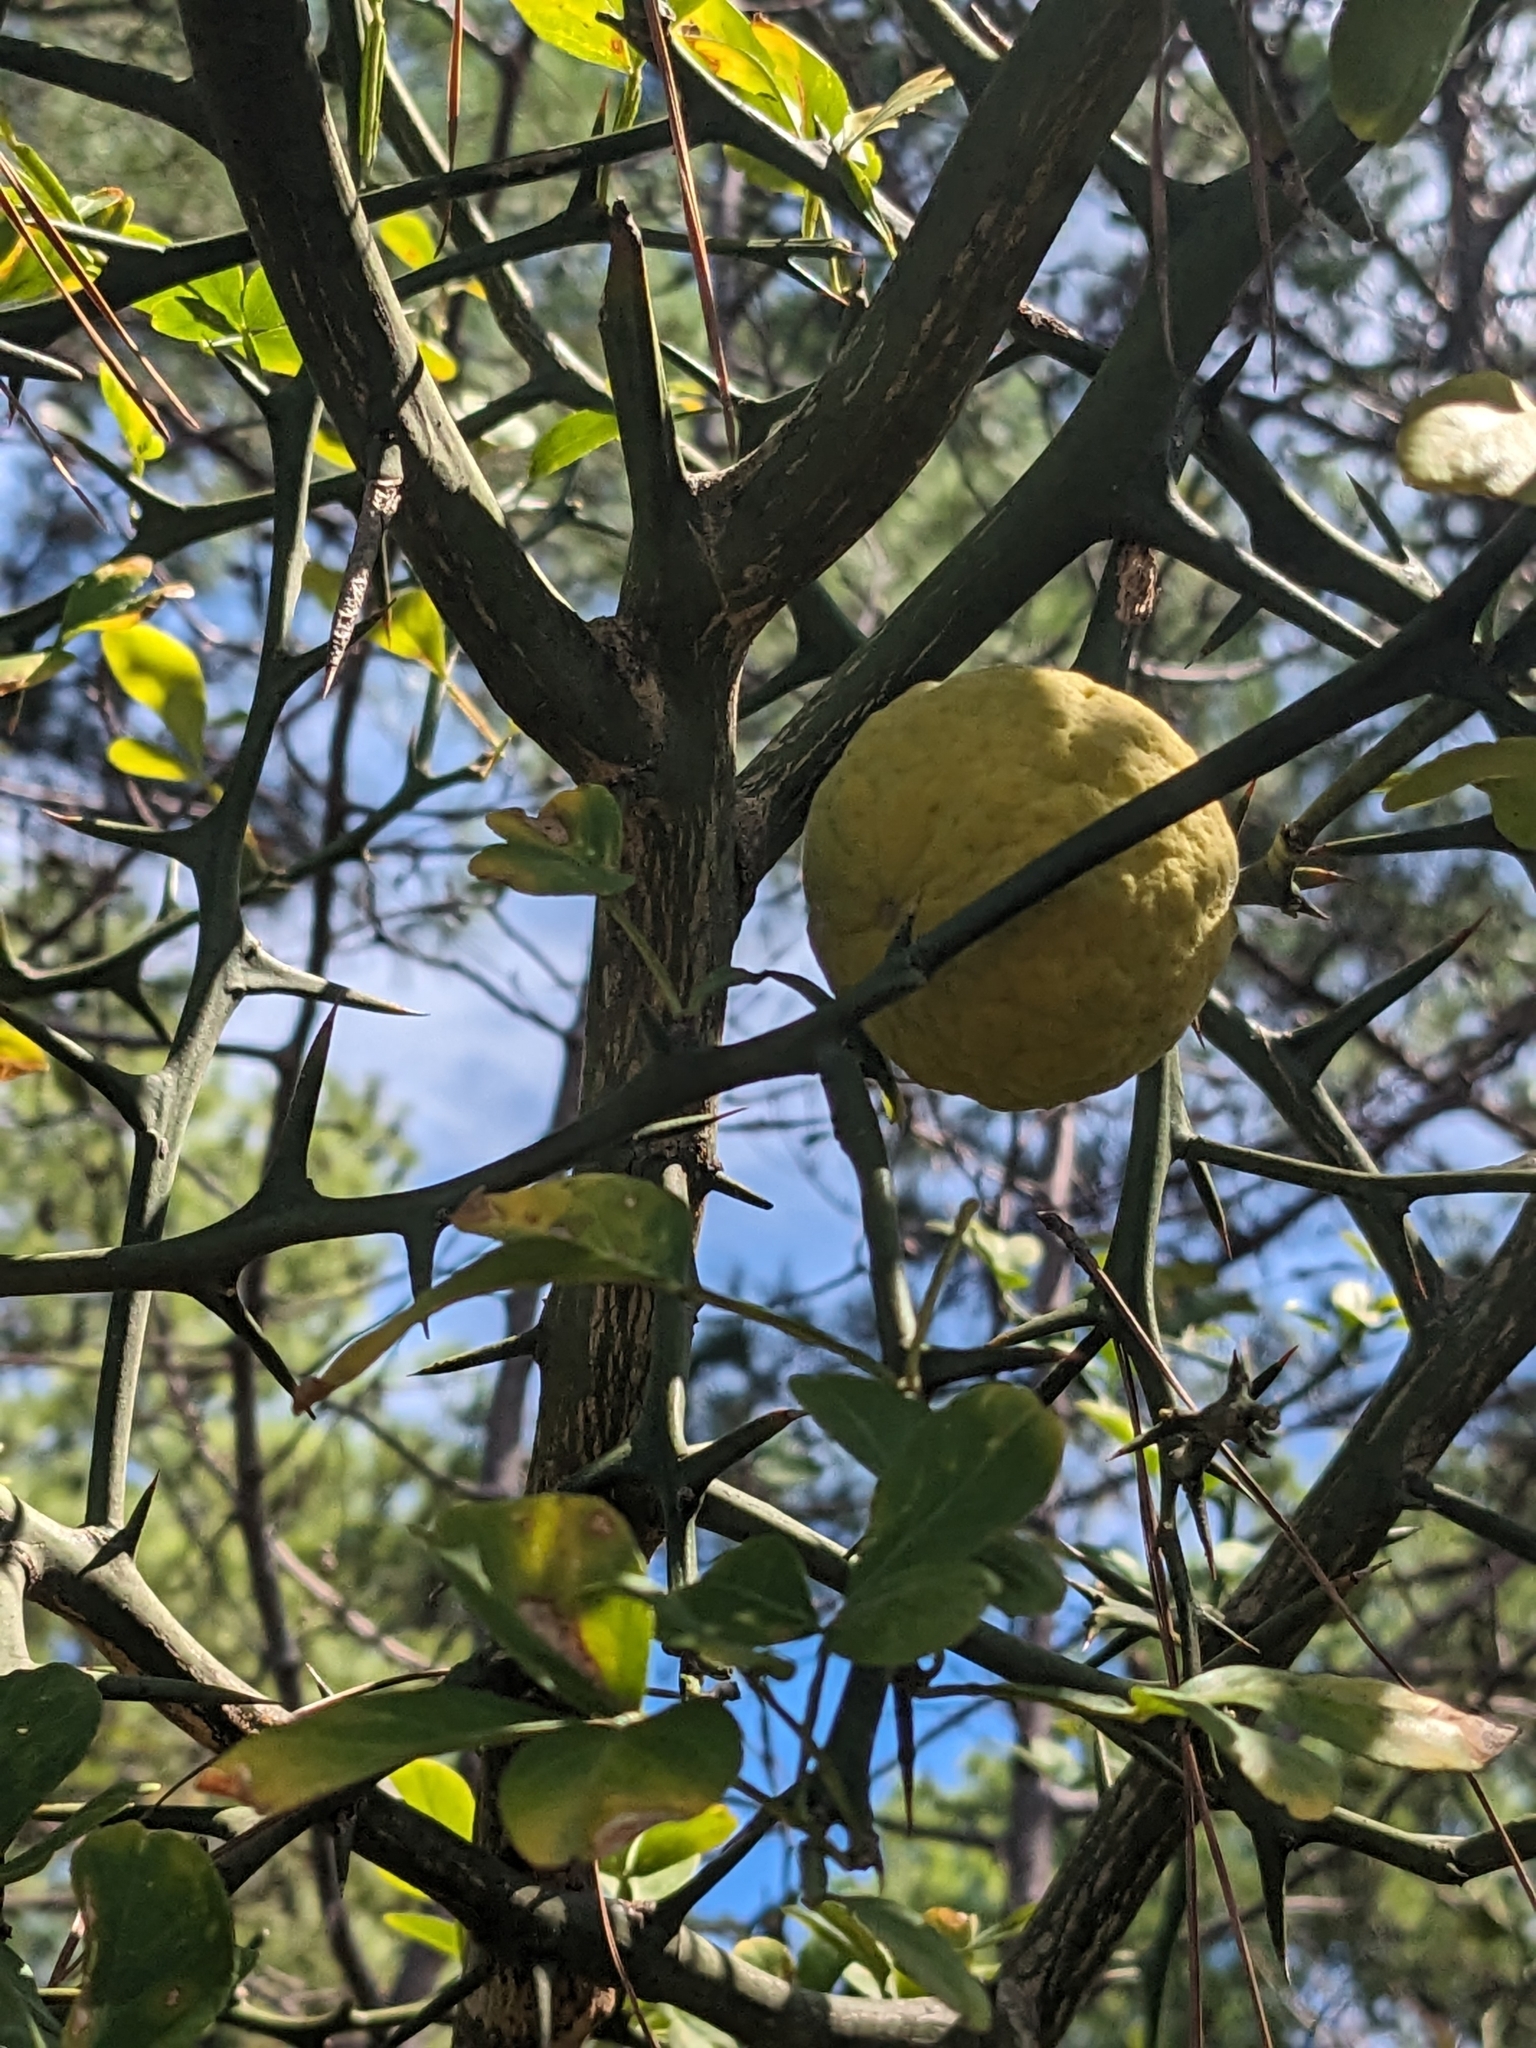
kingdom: Plantae
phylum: Tracheophyta
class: Magnoliopsida
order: Sapindales
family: Rutaceae
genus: Citrus
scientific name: Citrus trifoliata
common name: Japanese bitter-orange
